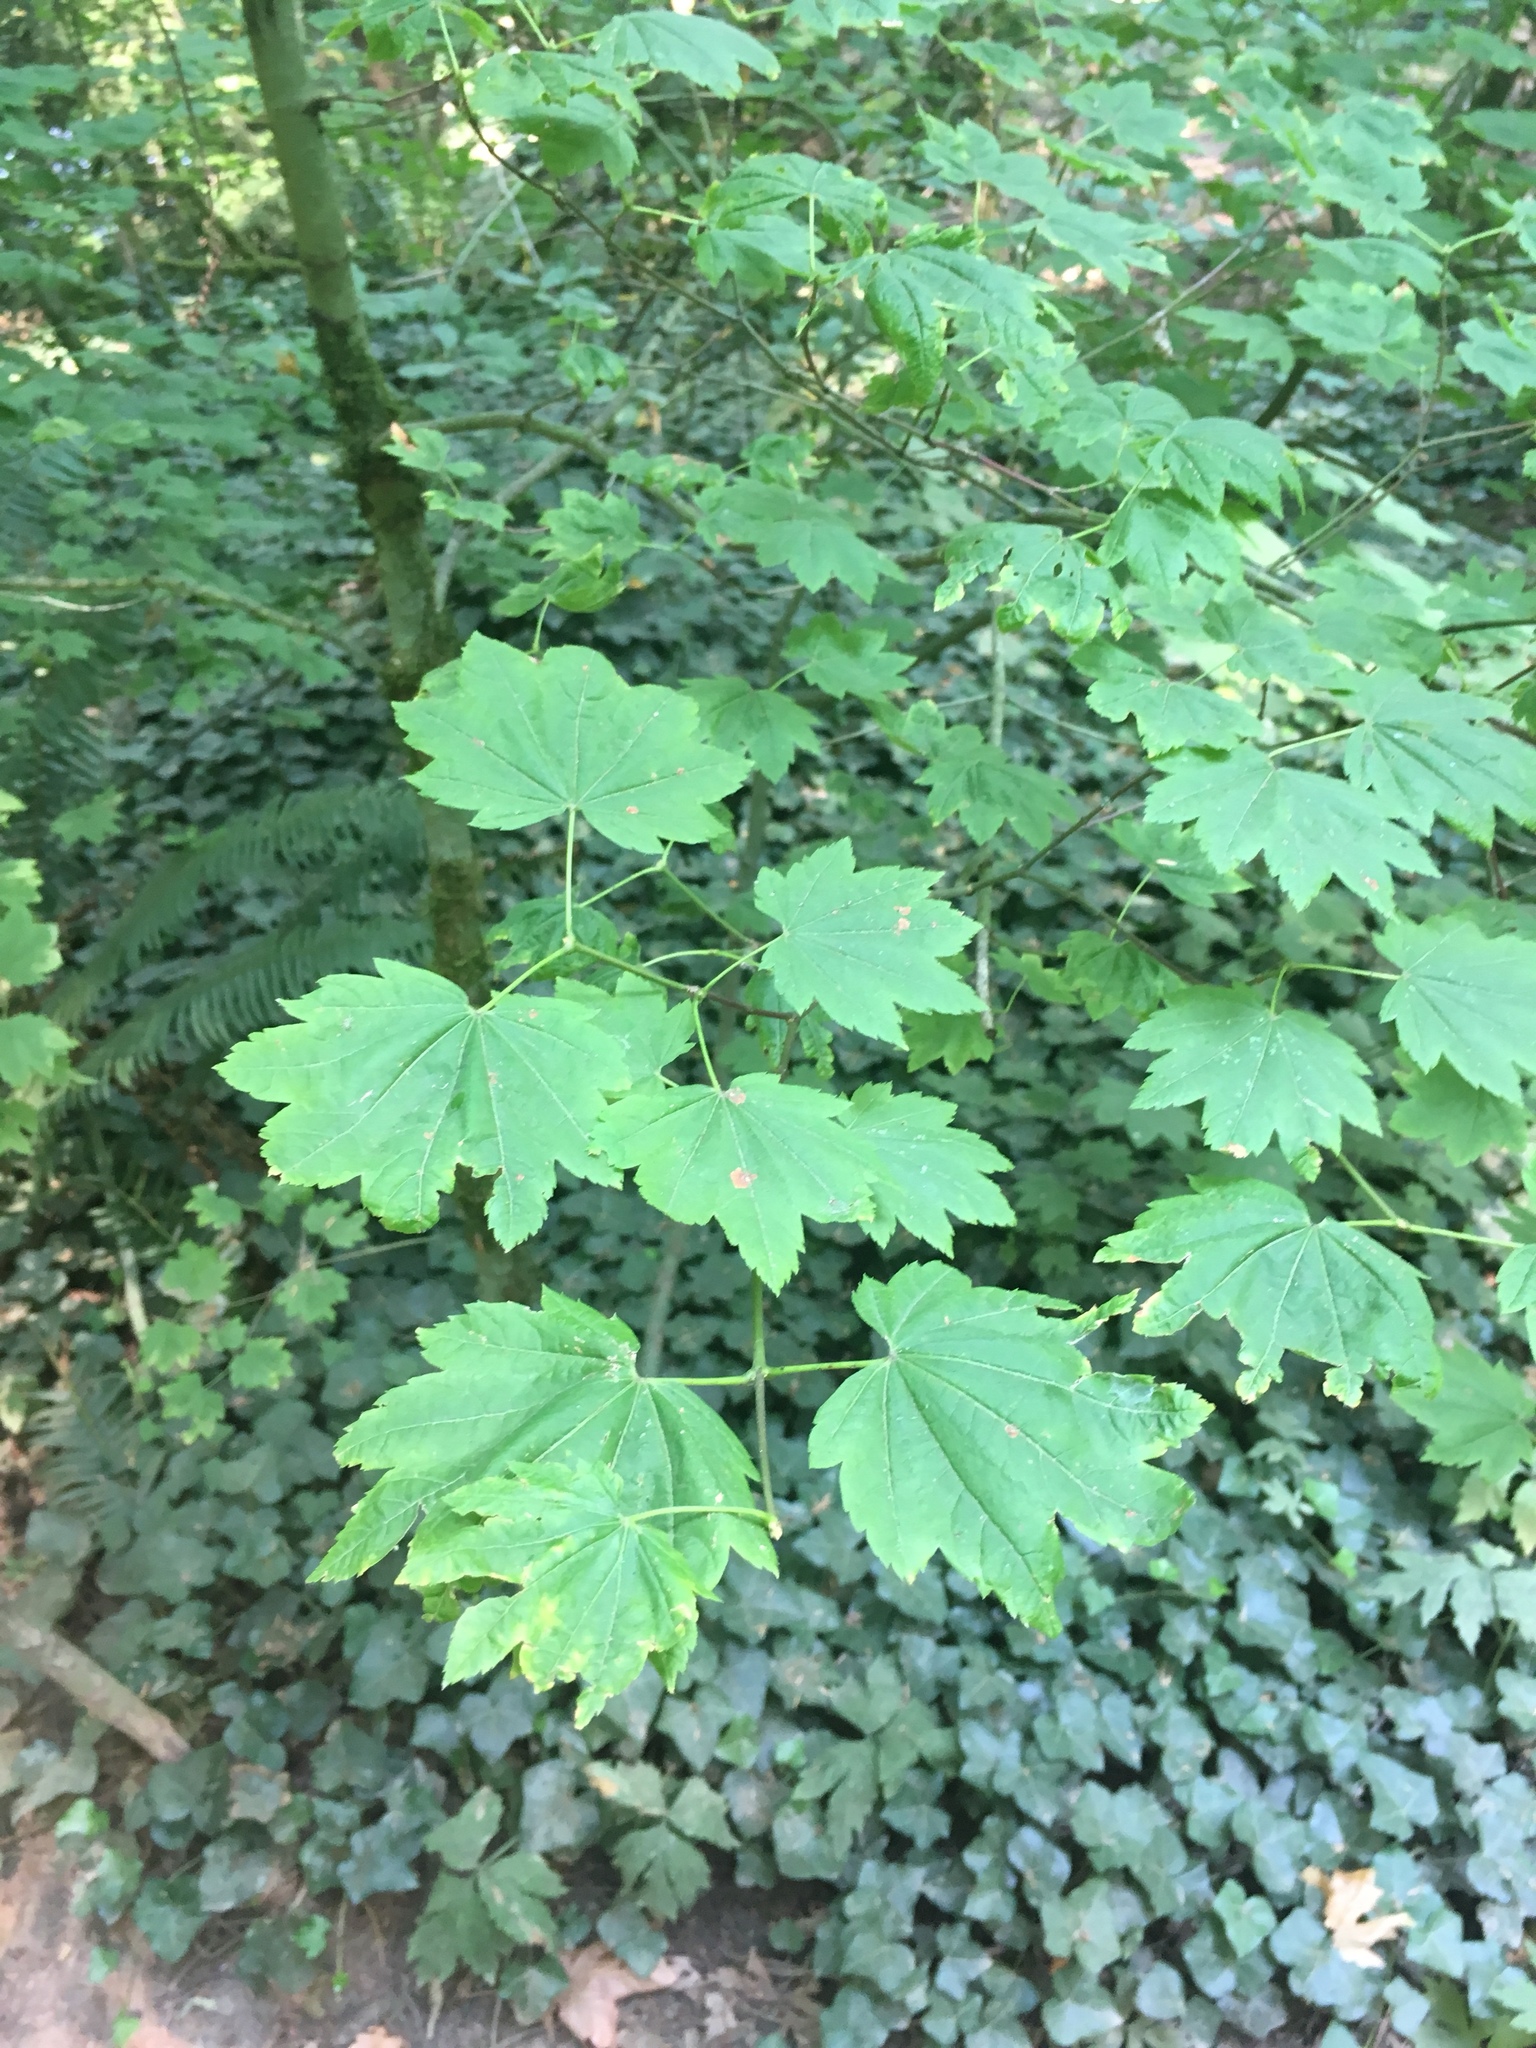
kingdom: Plantae
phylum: Tracheophyta
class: Magnoliopsida
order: Sapindales
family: Sapindaceae
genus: Acer
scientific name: Acer circinatum
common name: Vine maple
